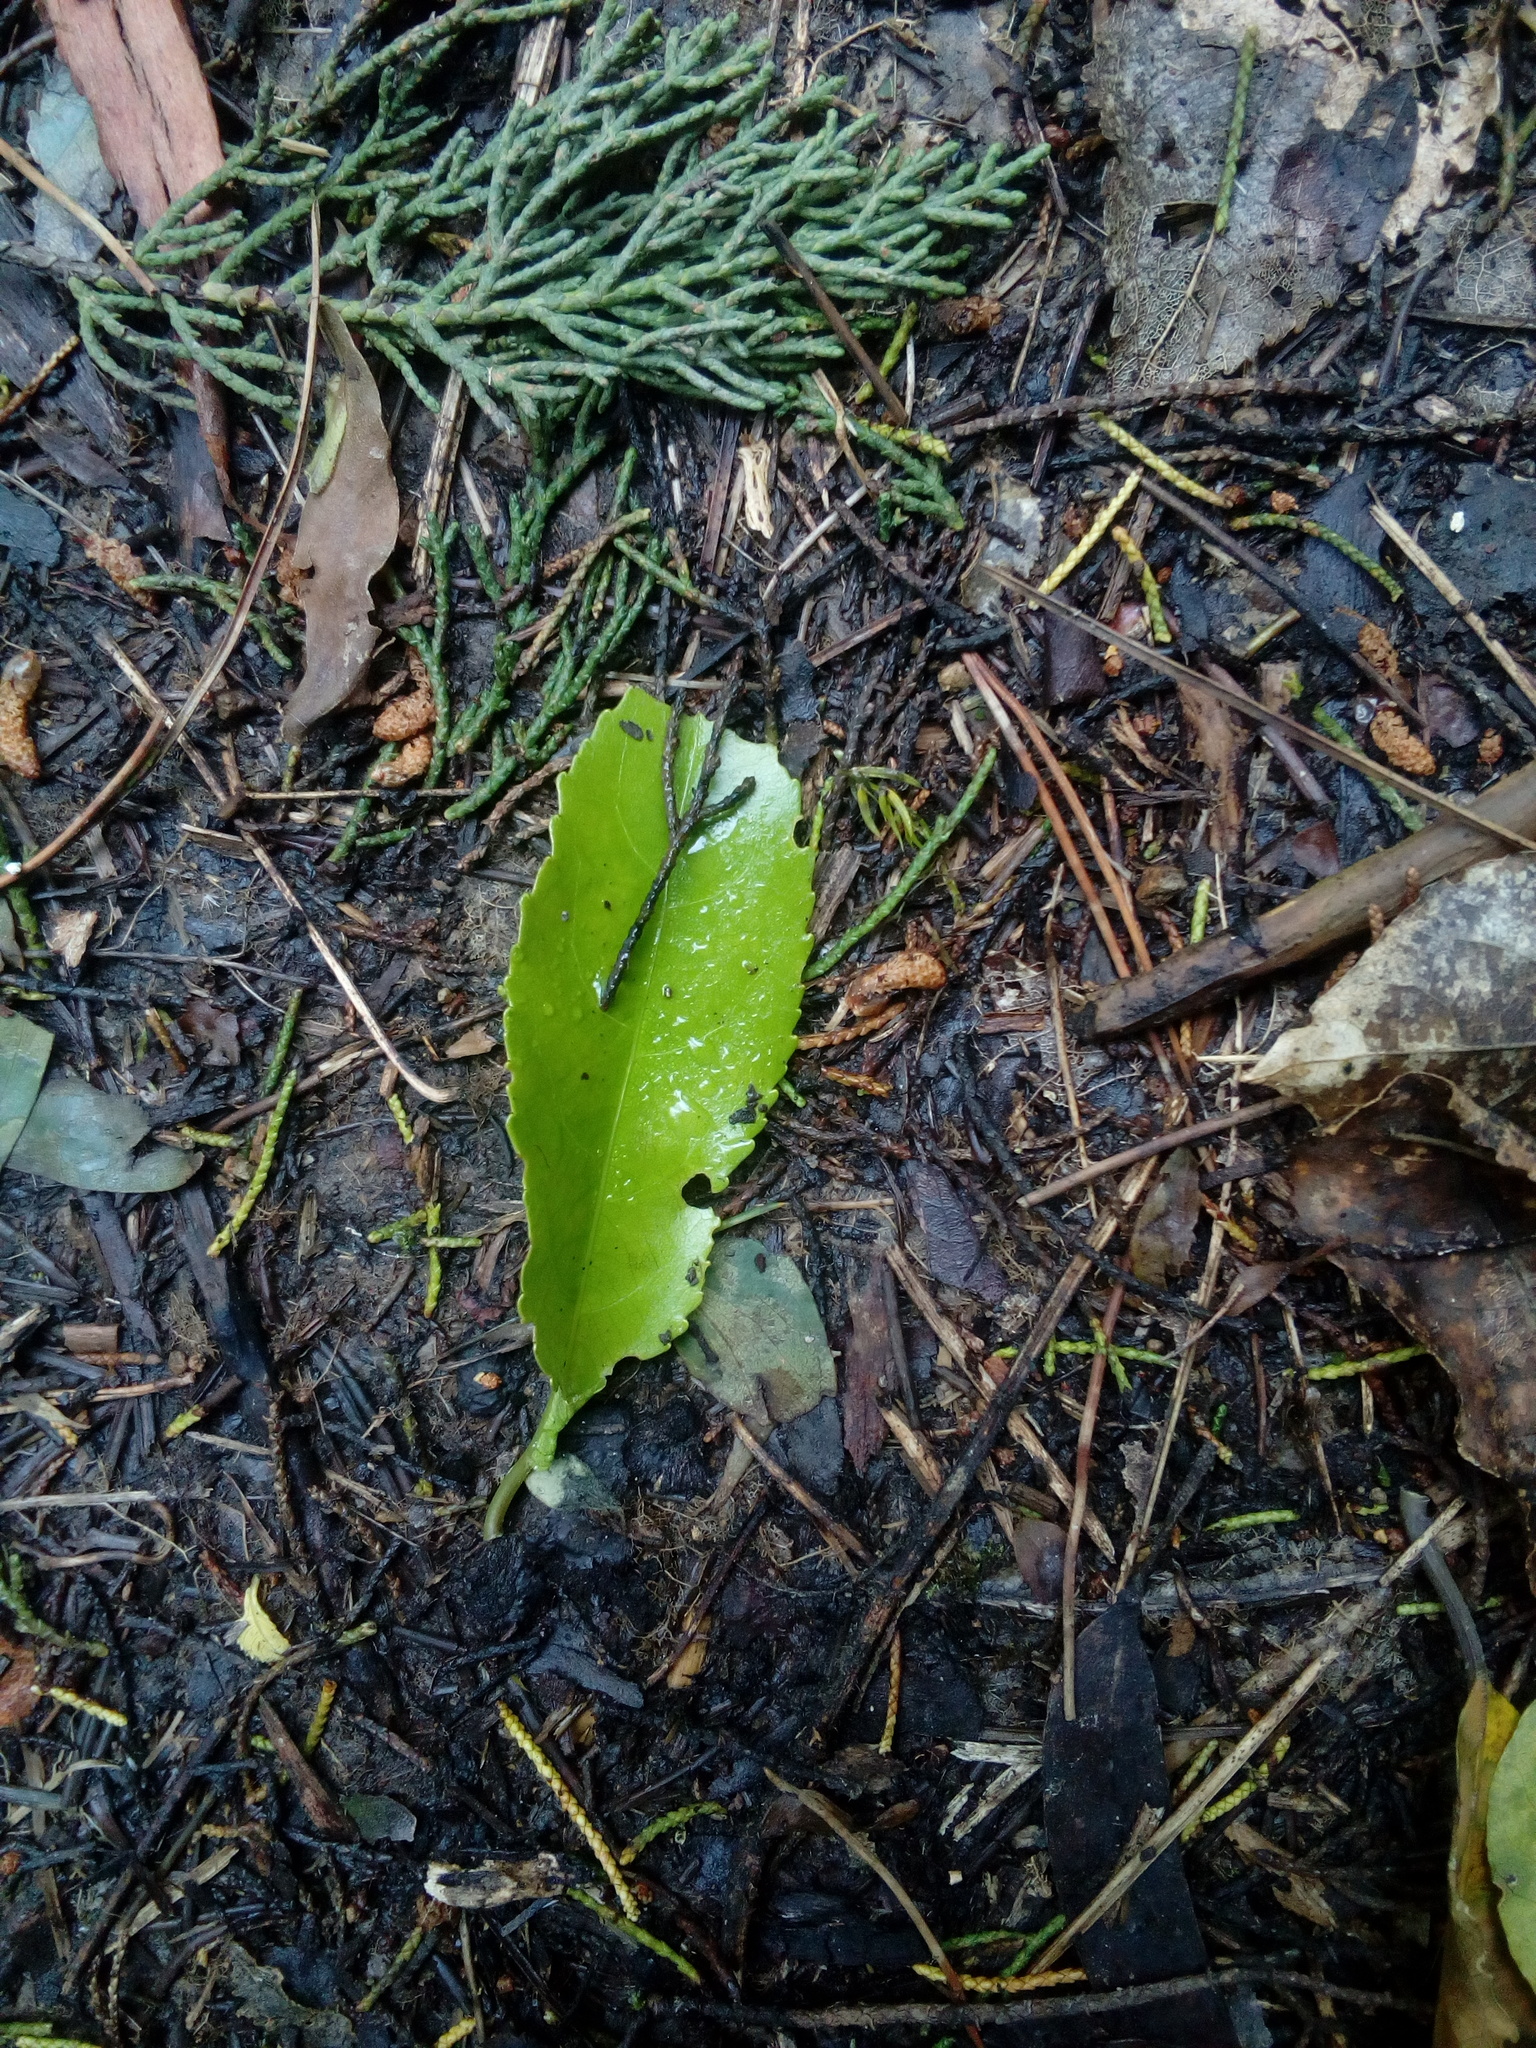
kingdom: Plantae
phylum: Tracheophyta
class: Magnoliopsida
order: Malpighiales
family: Violaceae
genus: Melicytus
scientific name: Melicytus ramiflorus
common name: Mahoe
